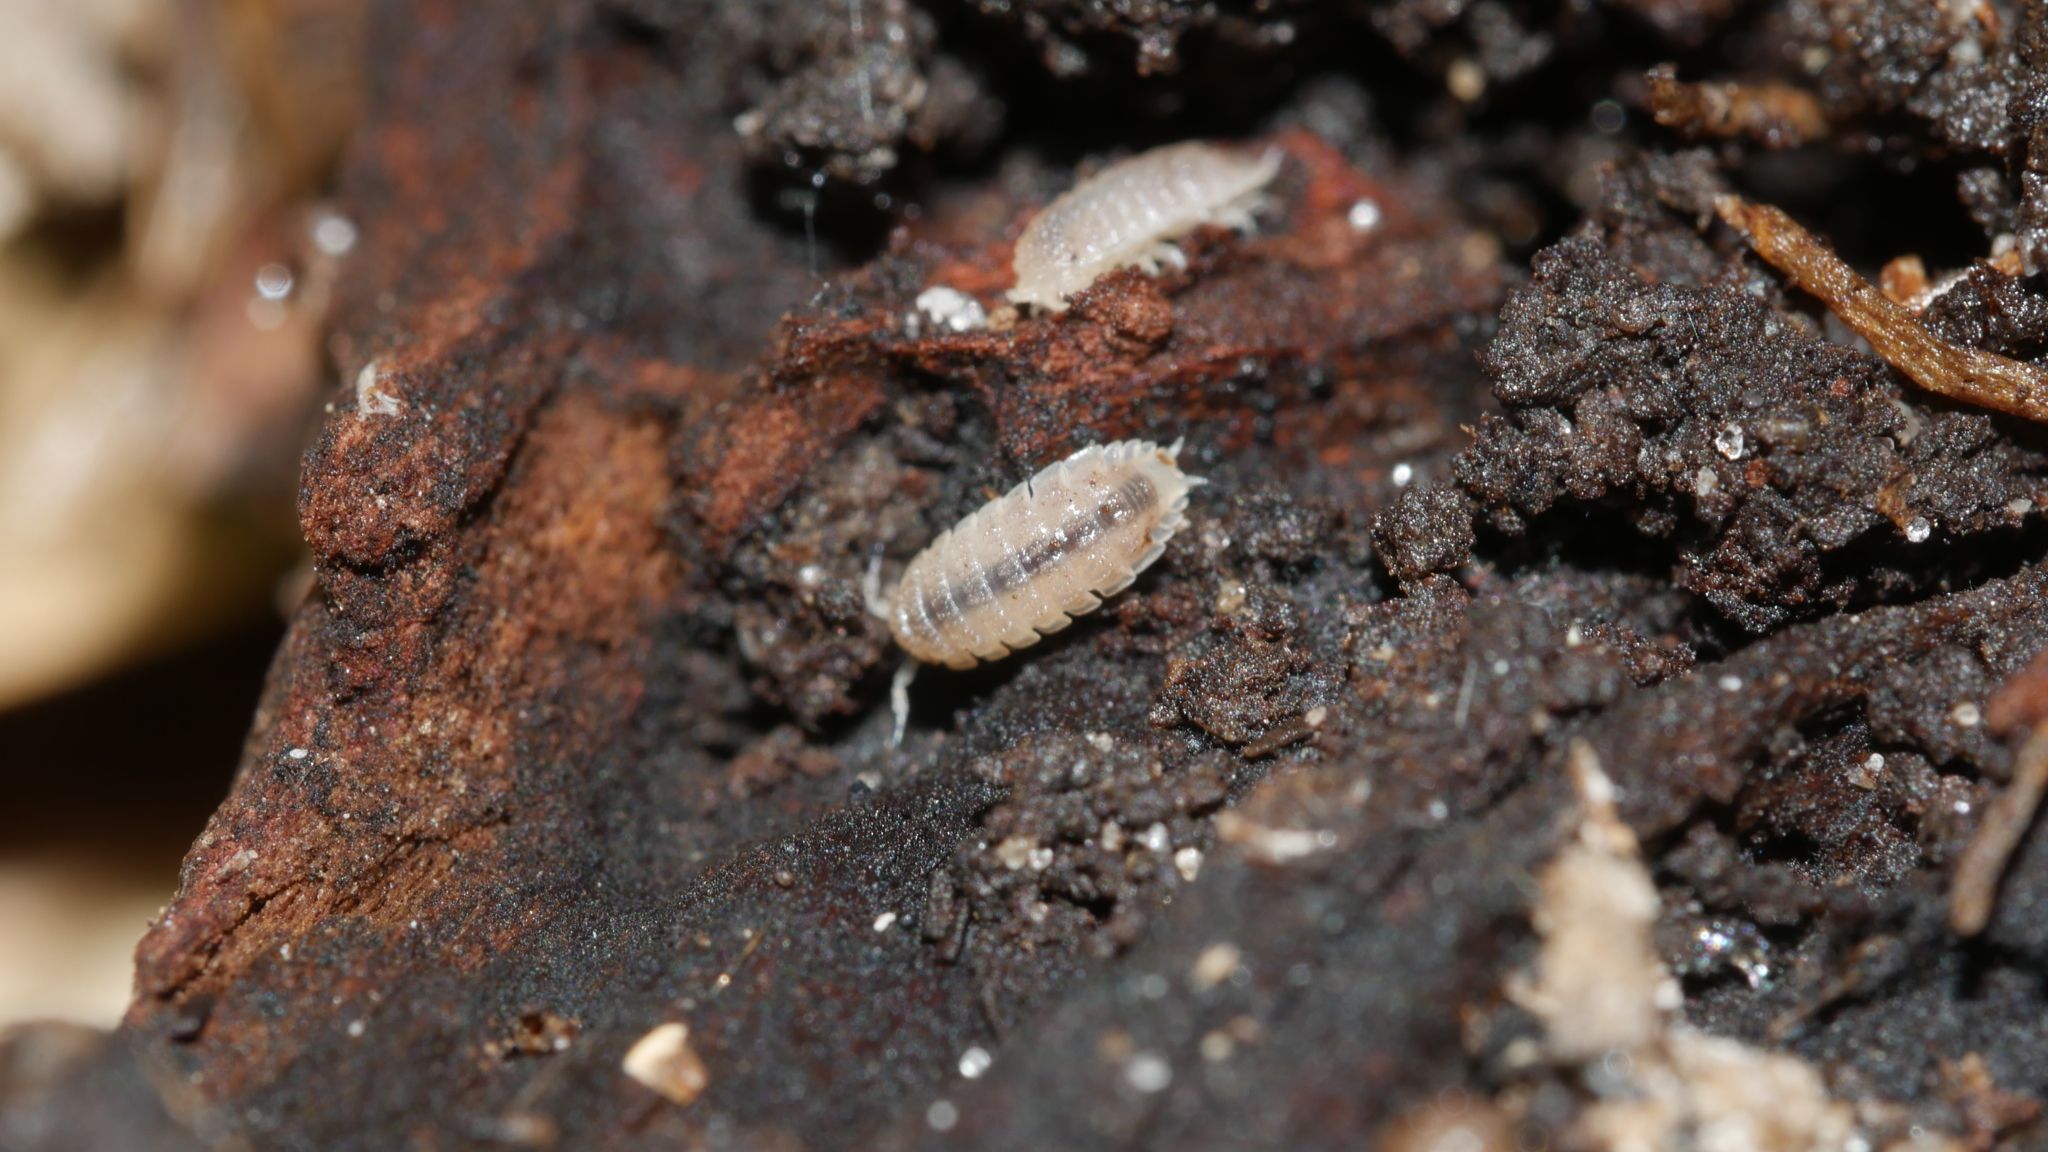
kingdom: Animalia
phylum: Arthropoda
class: Malacostraca
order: Isopoda
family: Trichoniscidae
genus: Haplophthalmus
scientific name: Haplophthalmus danicus
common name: Pillbug
